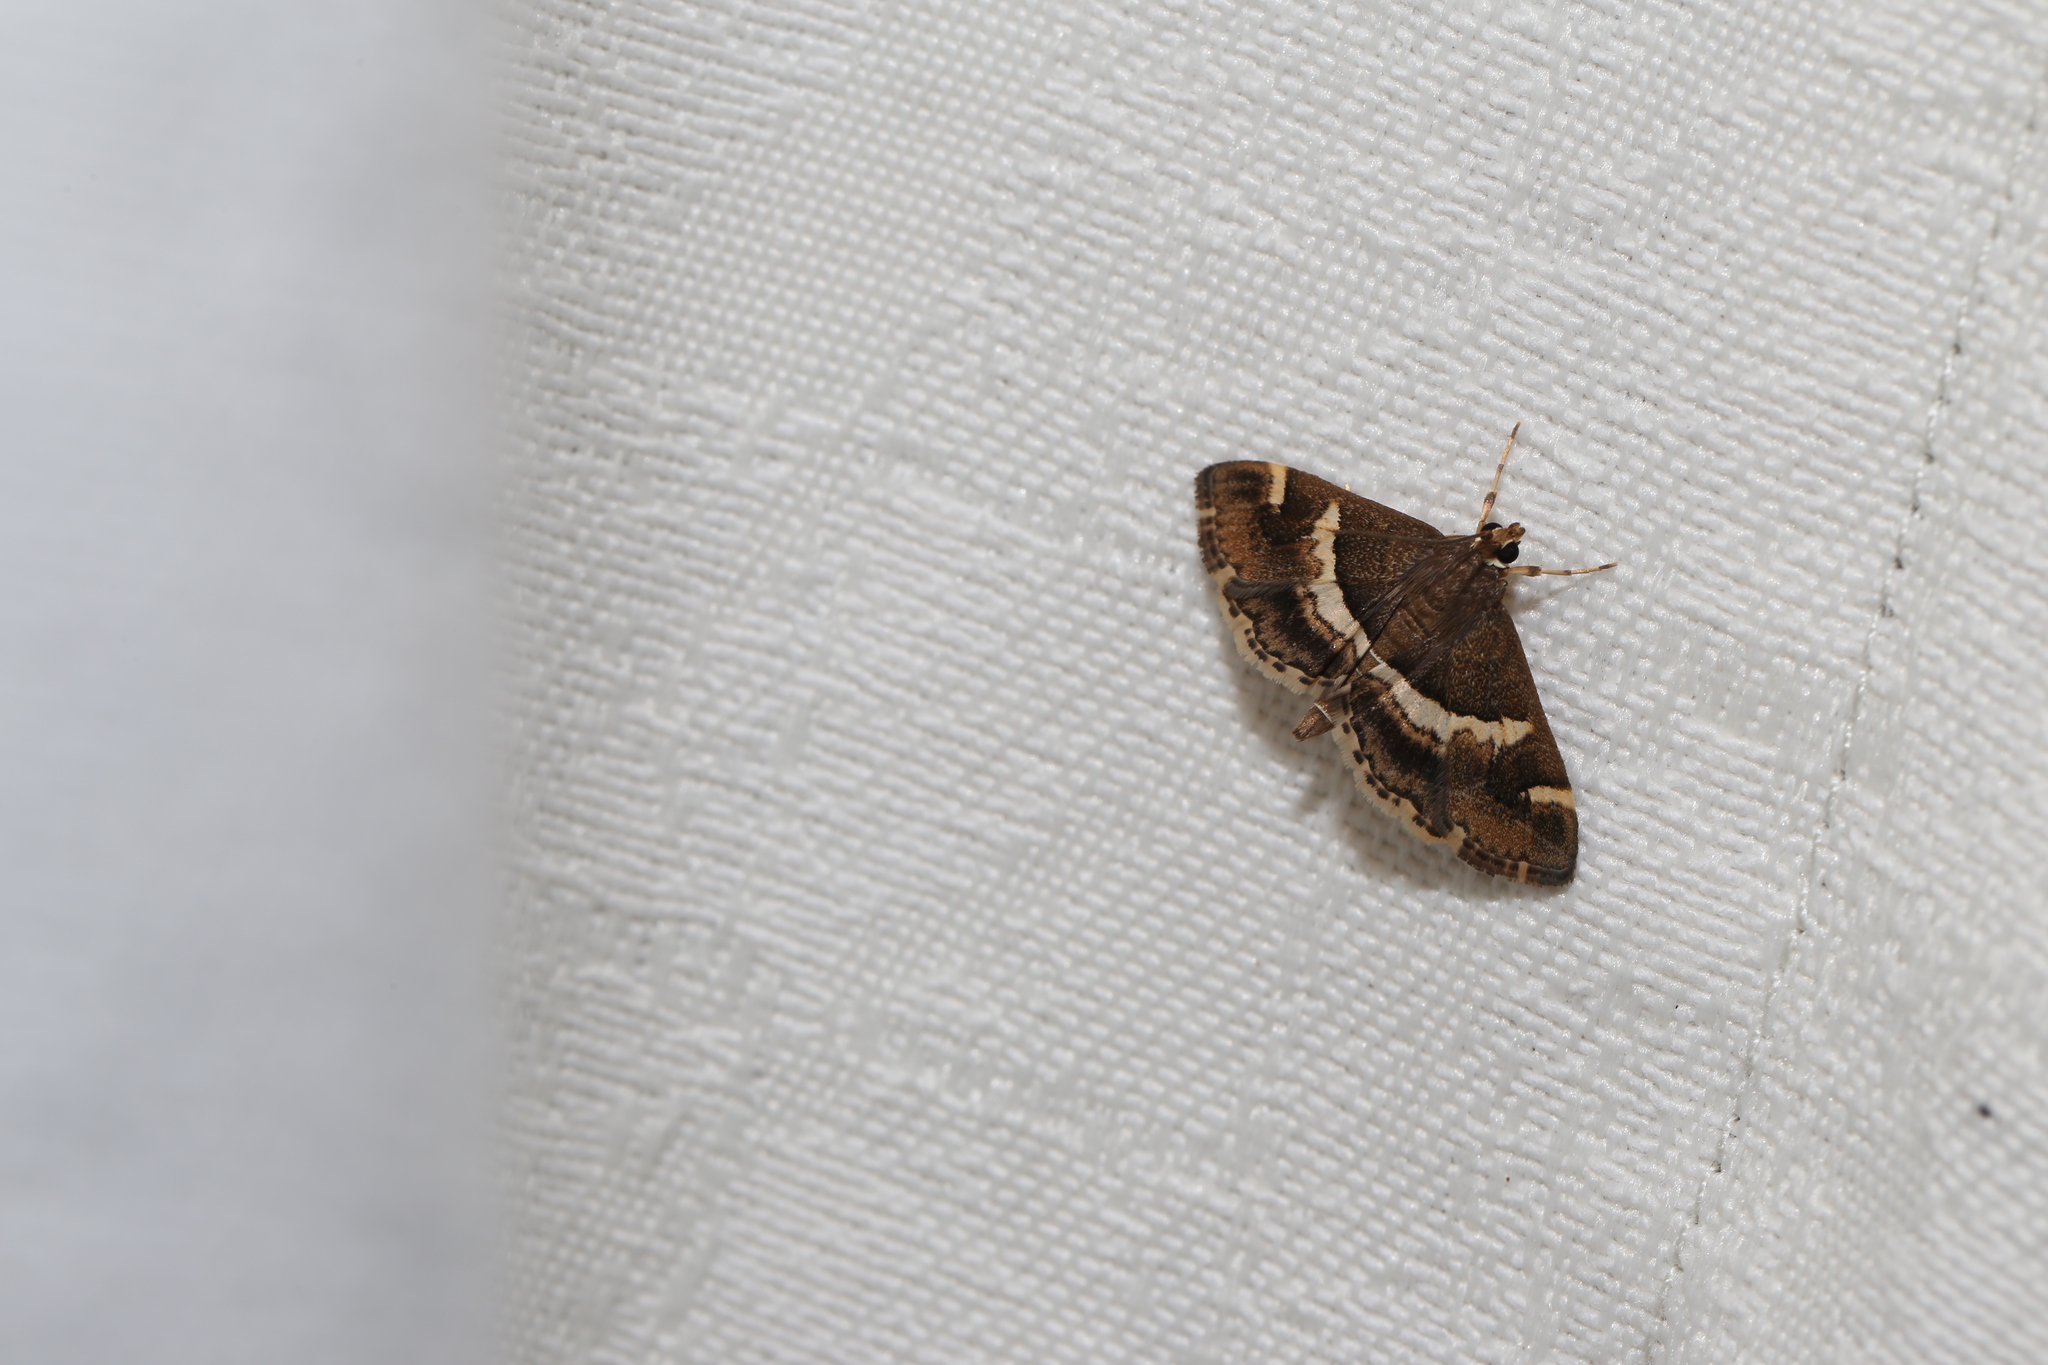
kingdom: Animalia
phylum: Arthropoda
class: Insecta
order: Lepidoptera
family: Crambidae
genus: Spoladea
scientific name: Spoladea recurvalis
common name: Beet webworm moth
